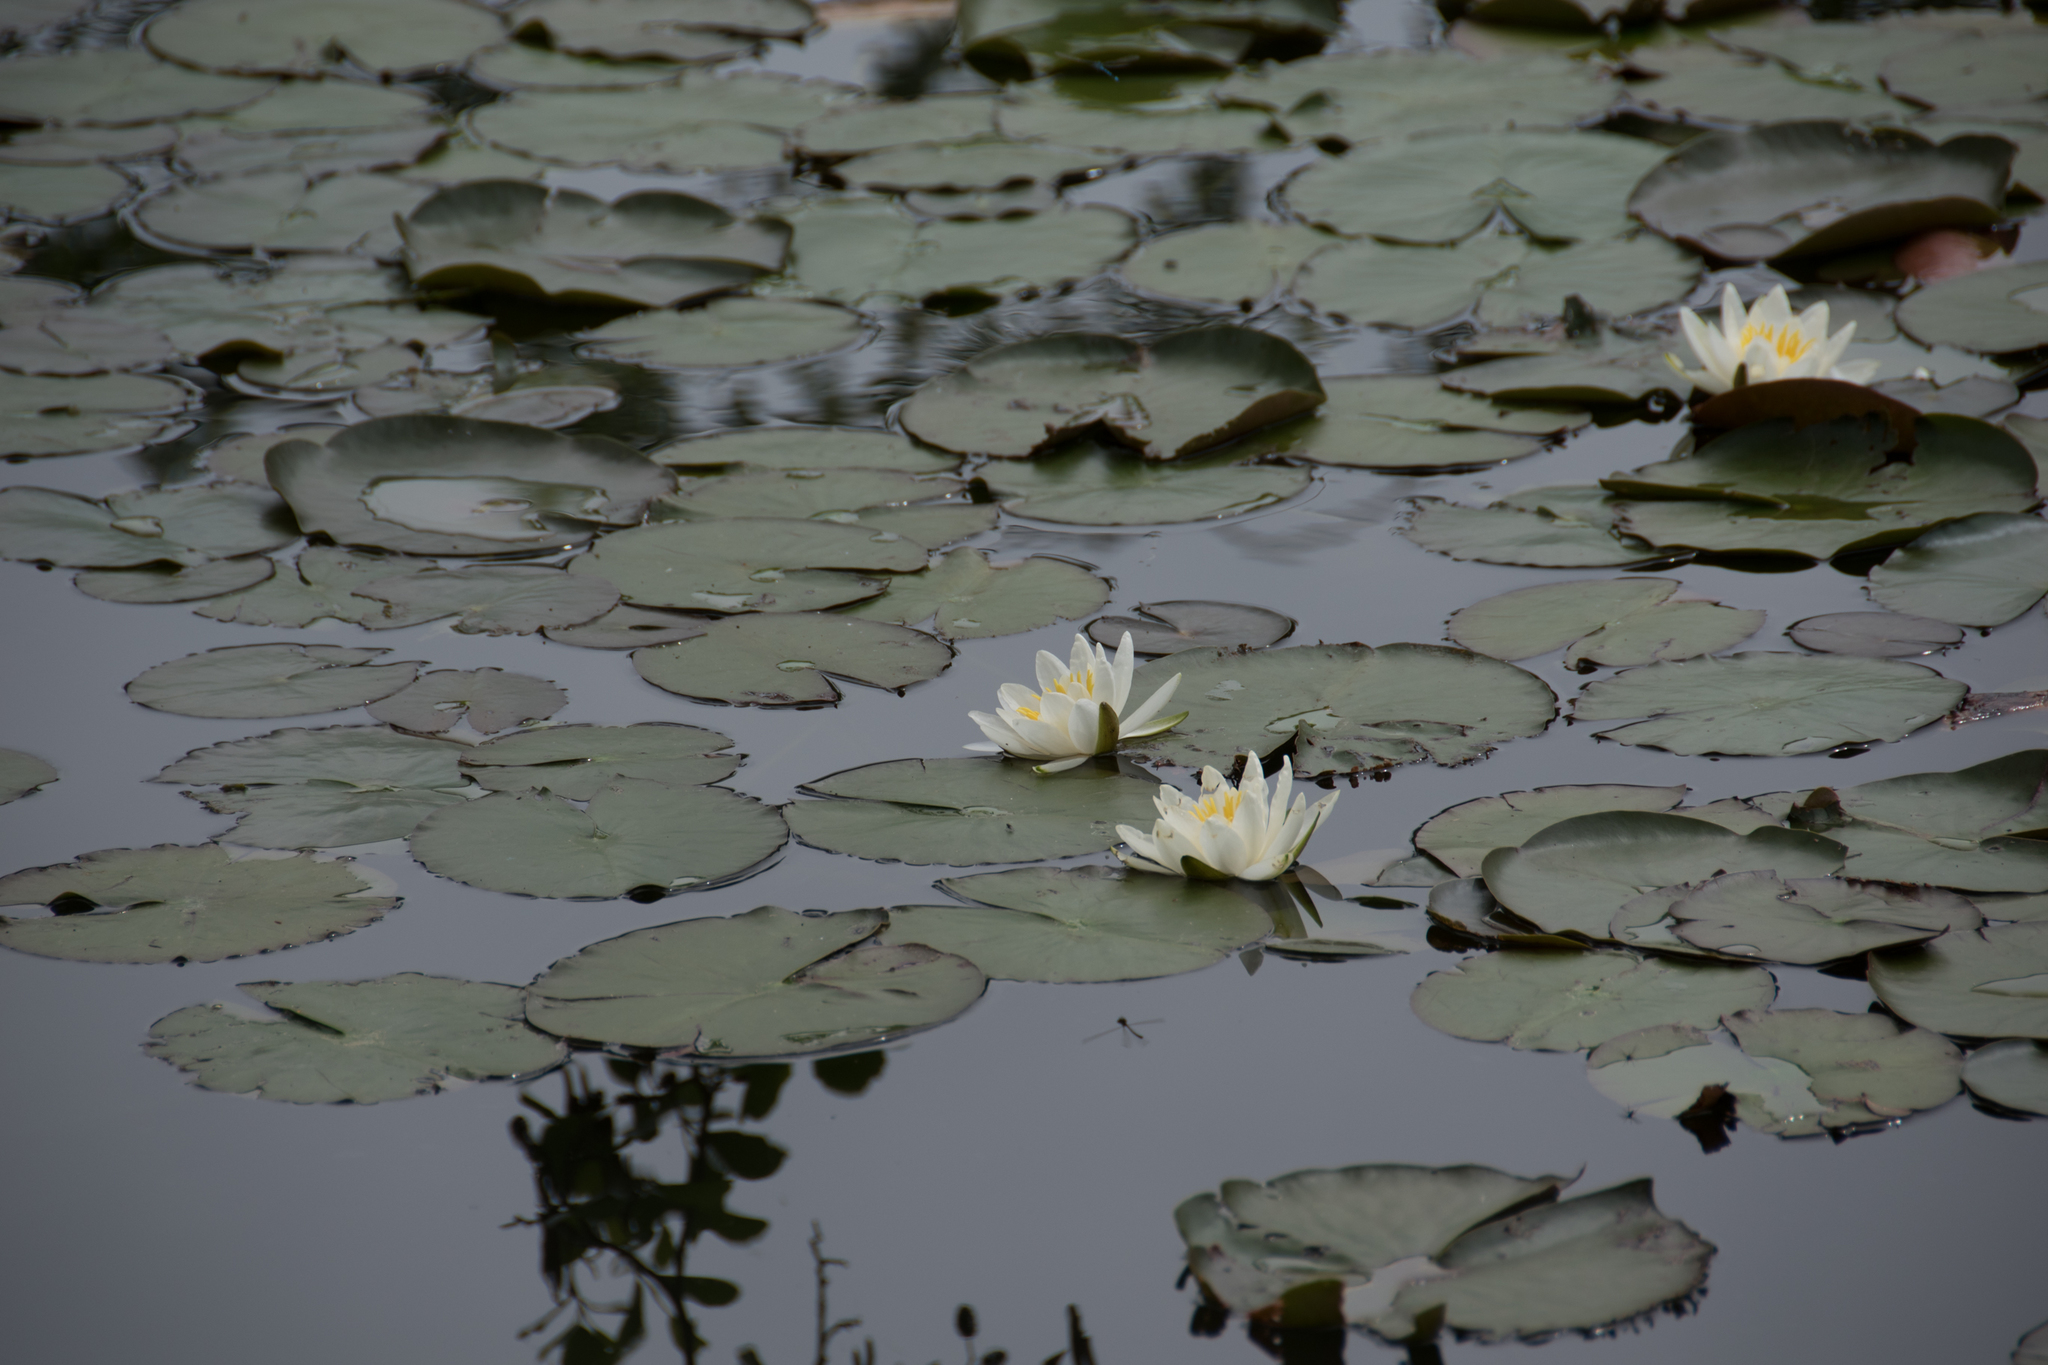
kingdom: Plantae
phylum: Tracheophyta
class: Magnoliopsida
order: Nymphaeales
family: Nymphaeaceae
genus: Nymphaea
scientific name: Nymphaea alba
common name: White water-lily
